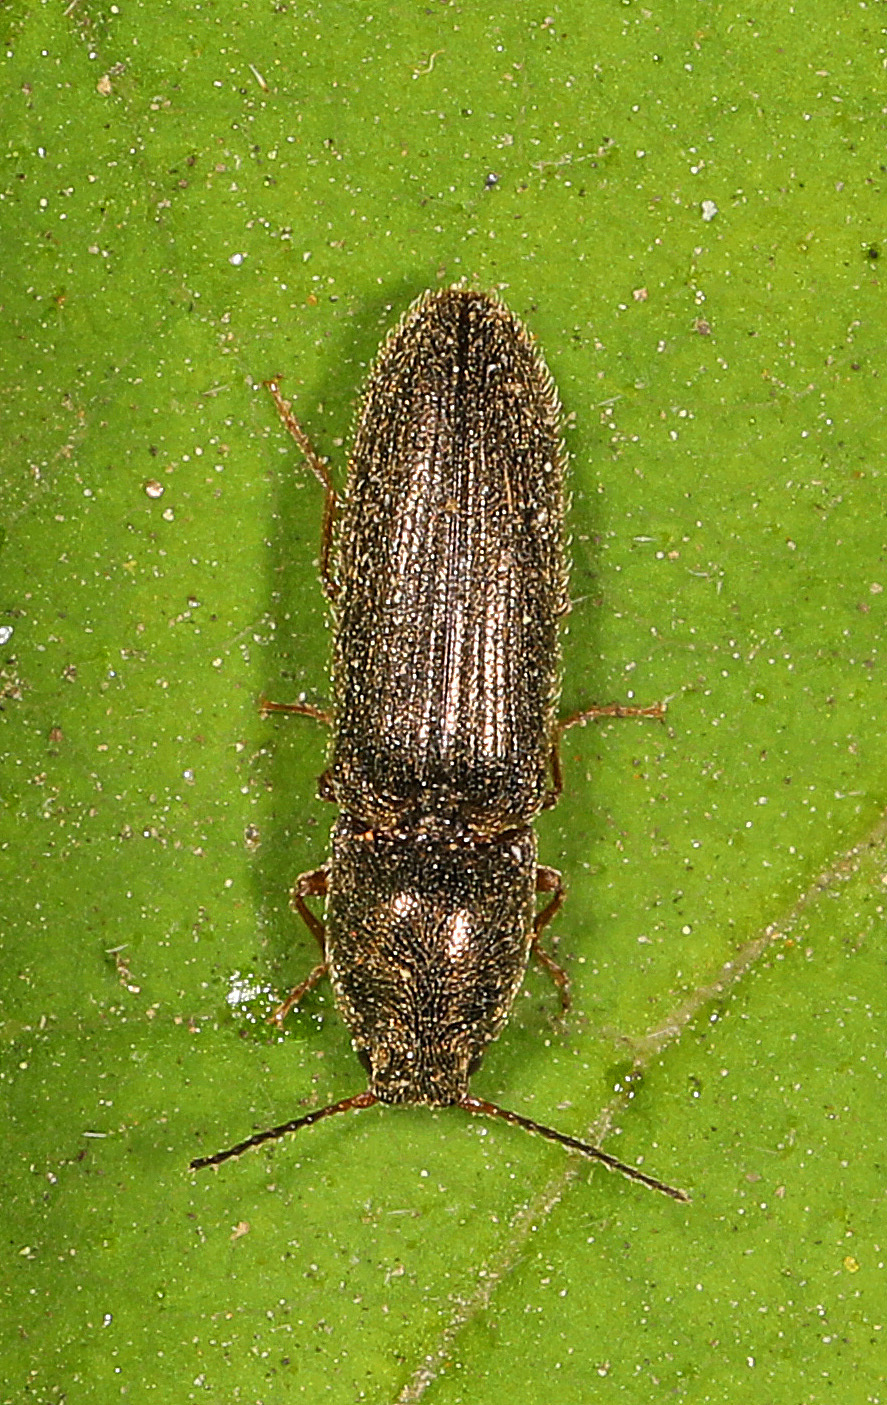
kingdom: Animalia
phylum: Arthropoda
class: Insecta
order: Coleoptera
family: Elateridae
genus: Limonius
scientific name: Limonius quercinus
